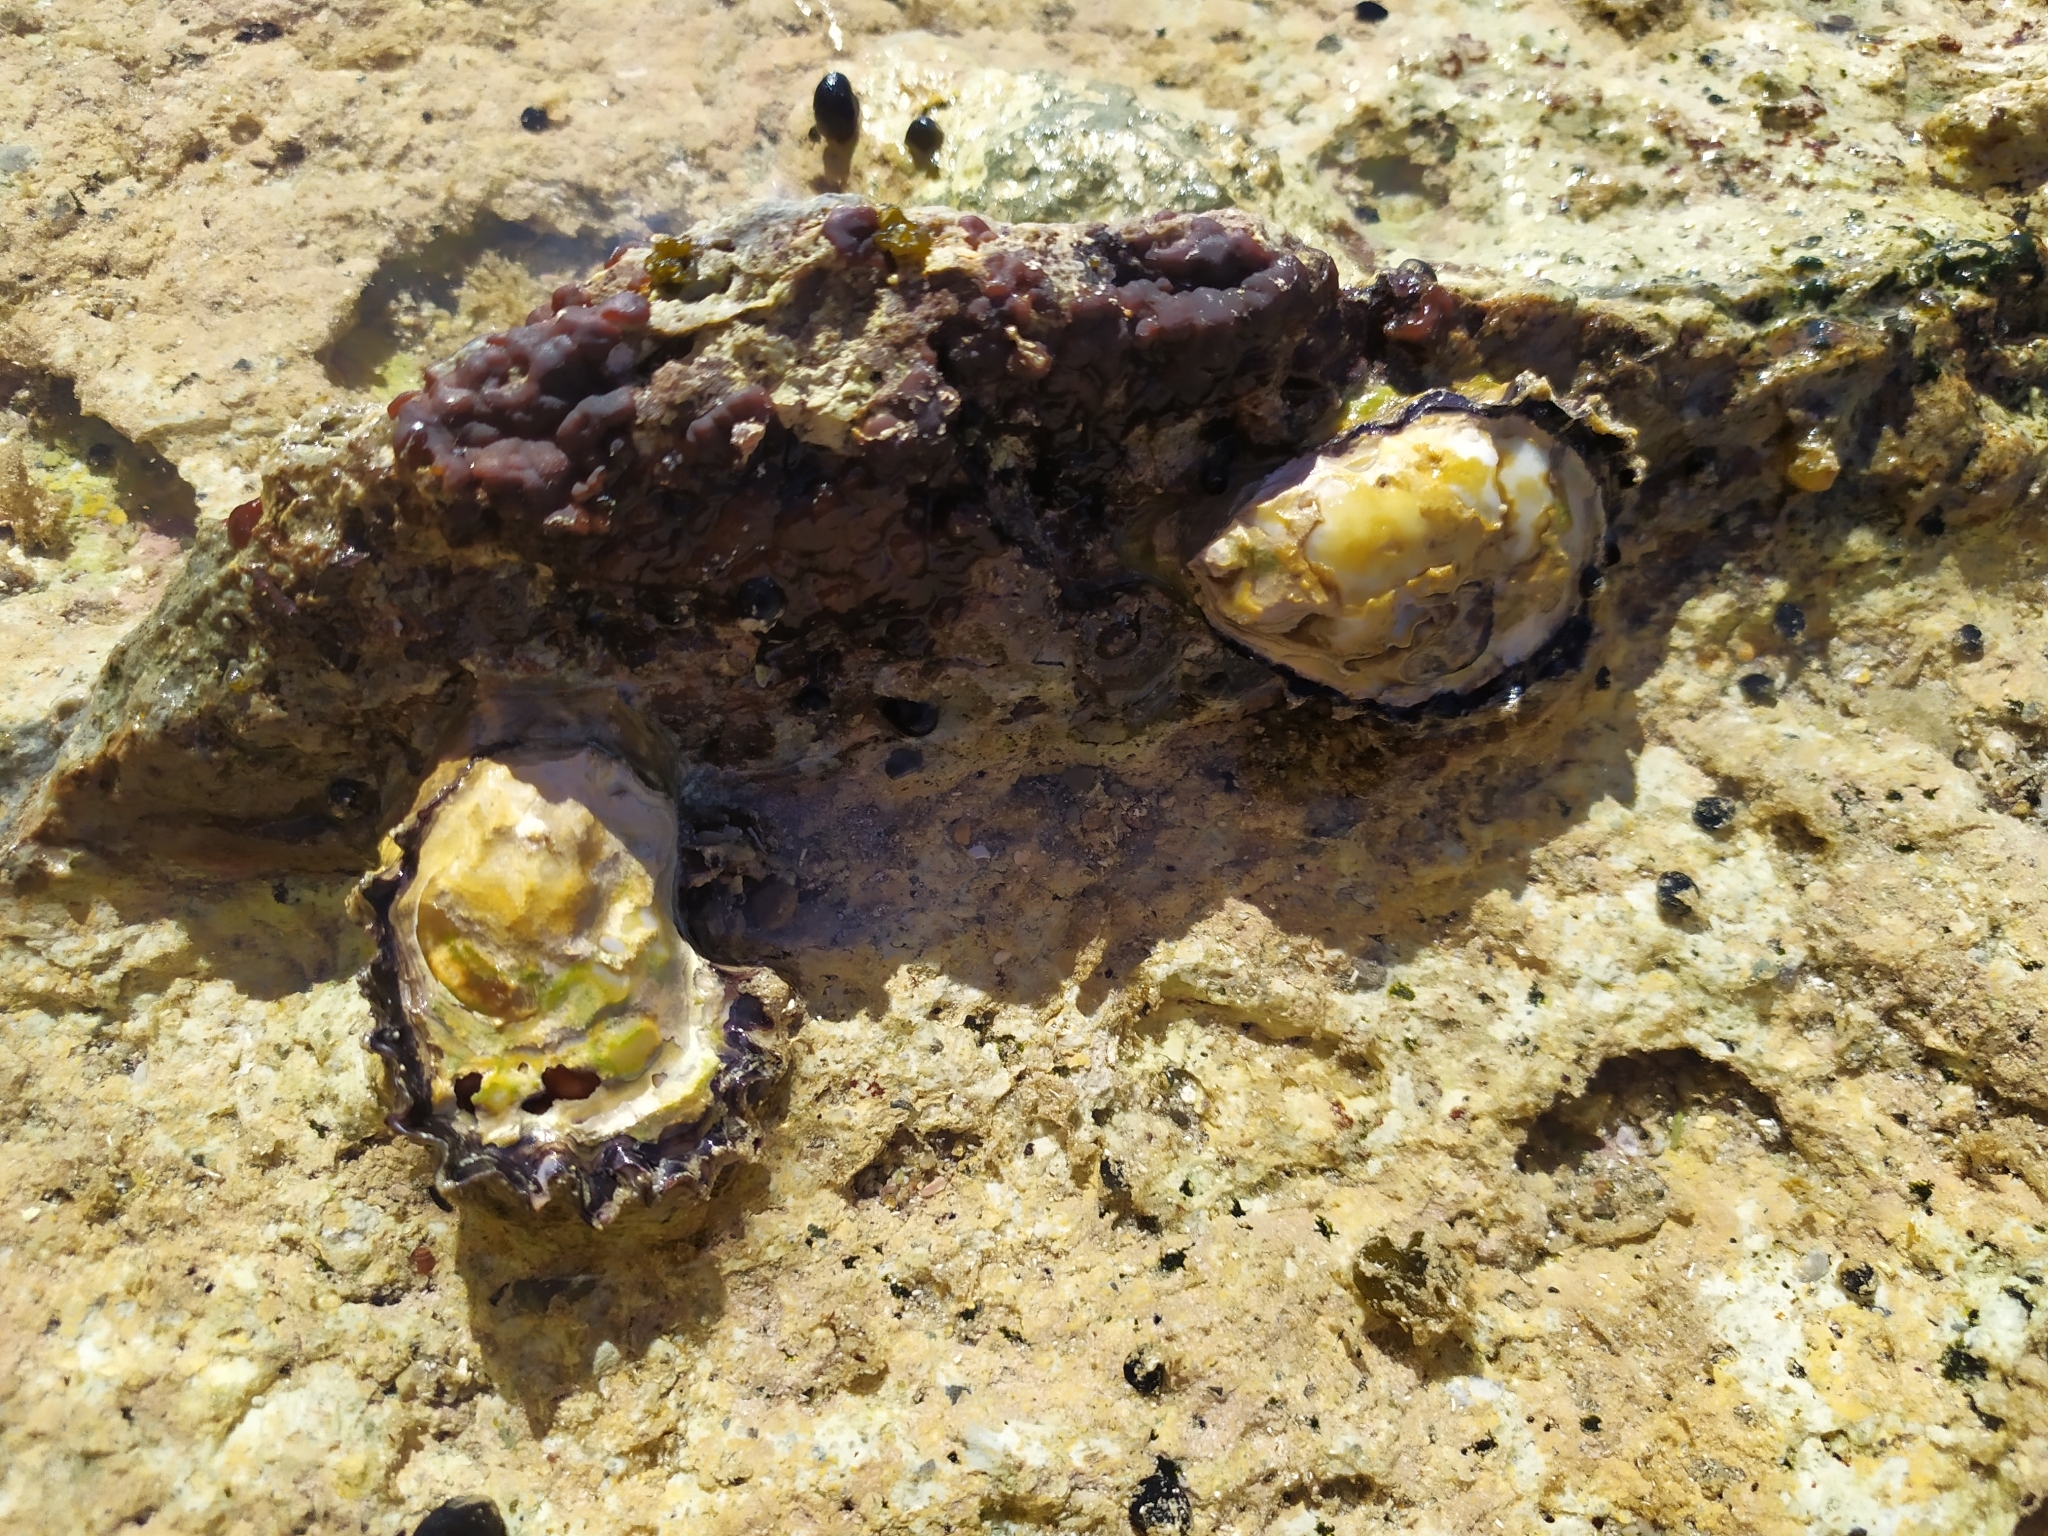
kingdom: Animalia
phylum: Mollusca
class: Bivalvia
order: Ostreida
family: Ostreidae
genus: Saccostrea
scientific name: Saccostrea glomerata
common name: Sydney cupped oyster
